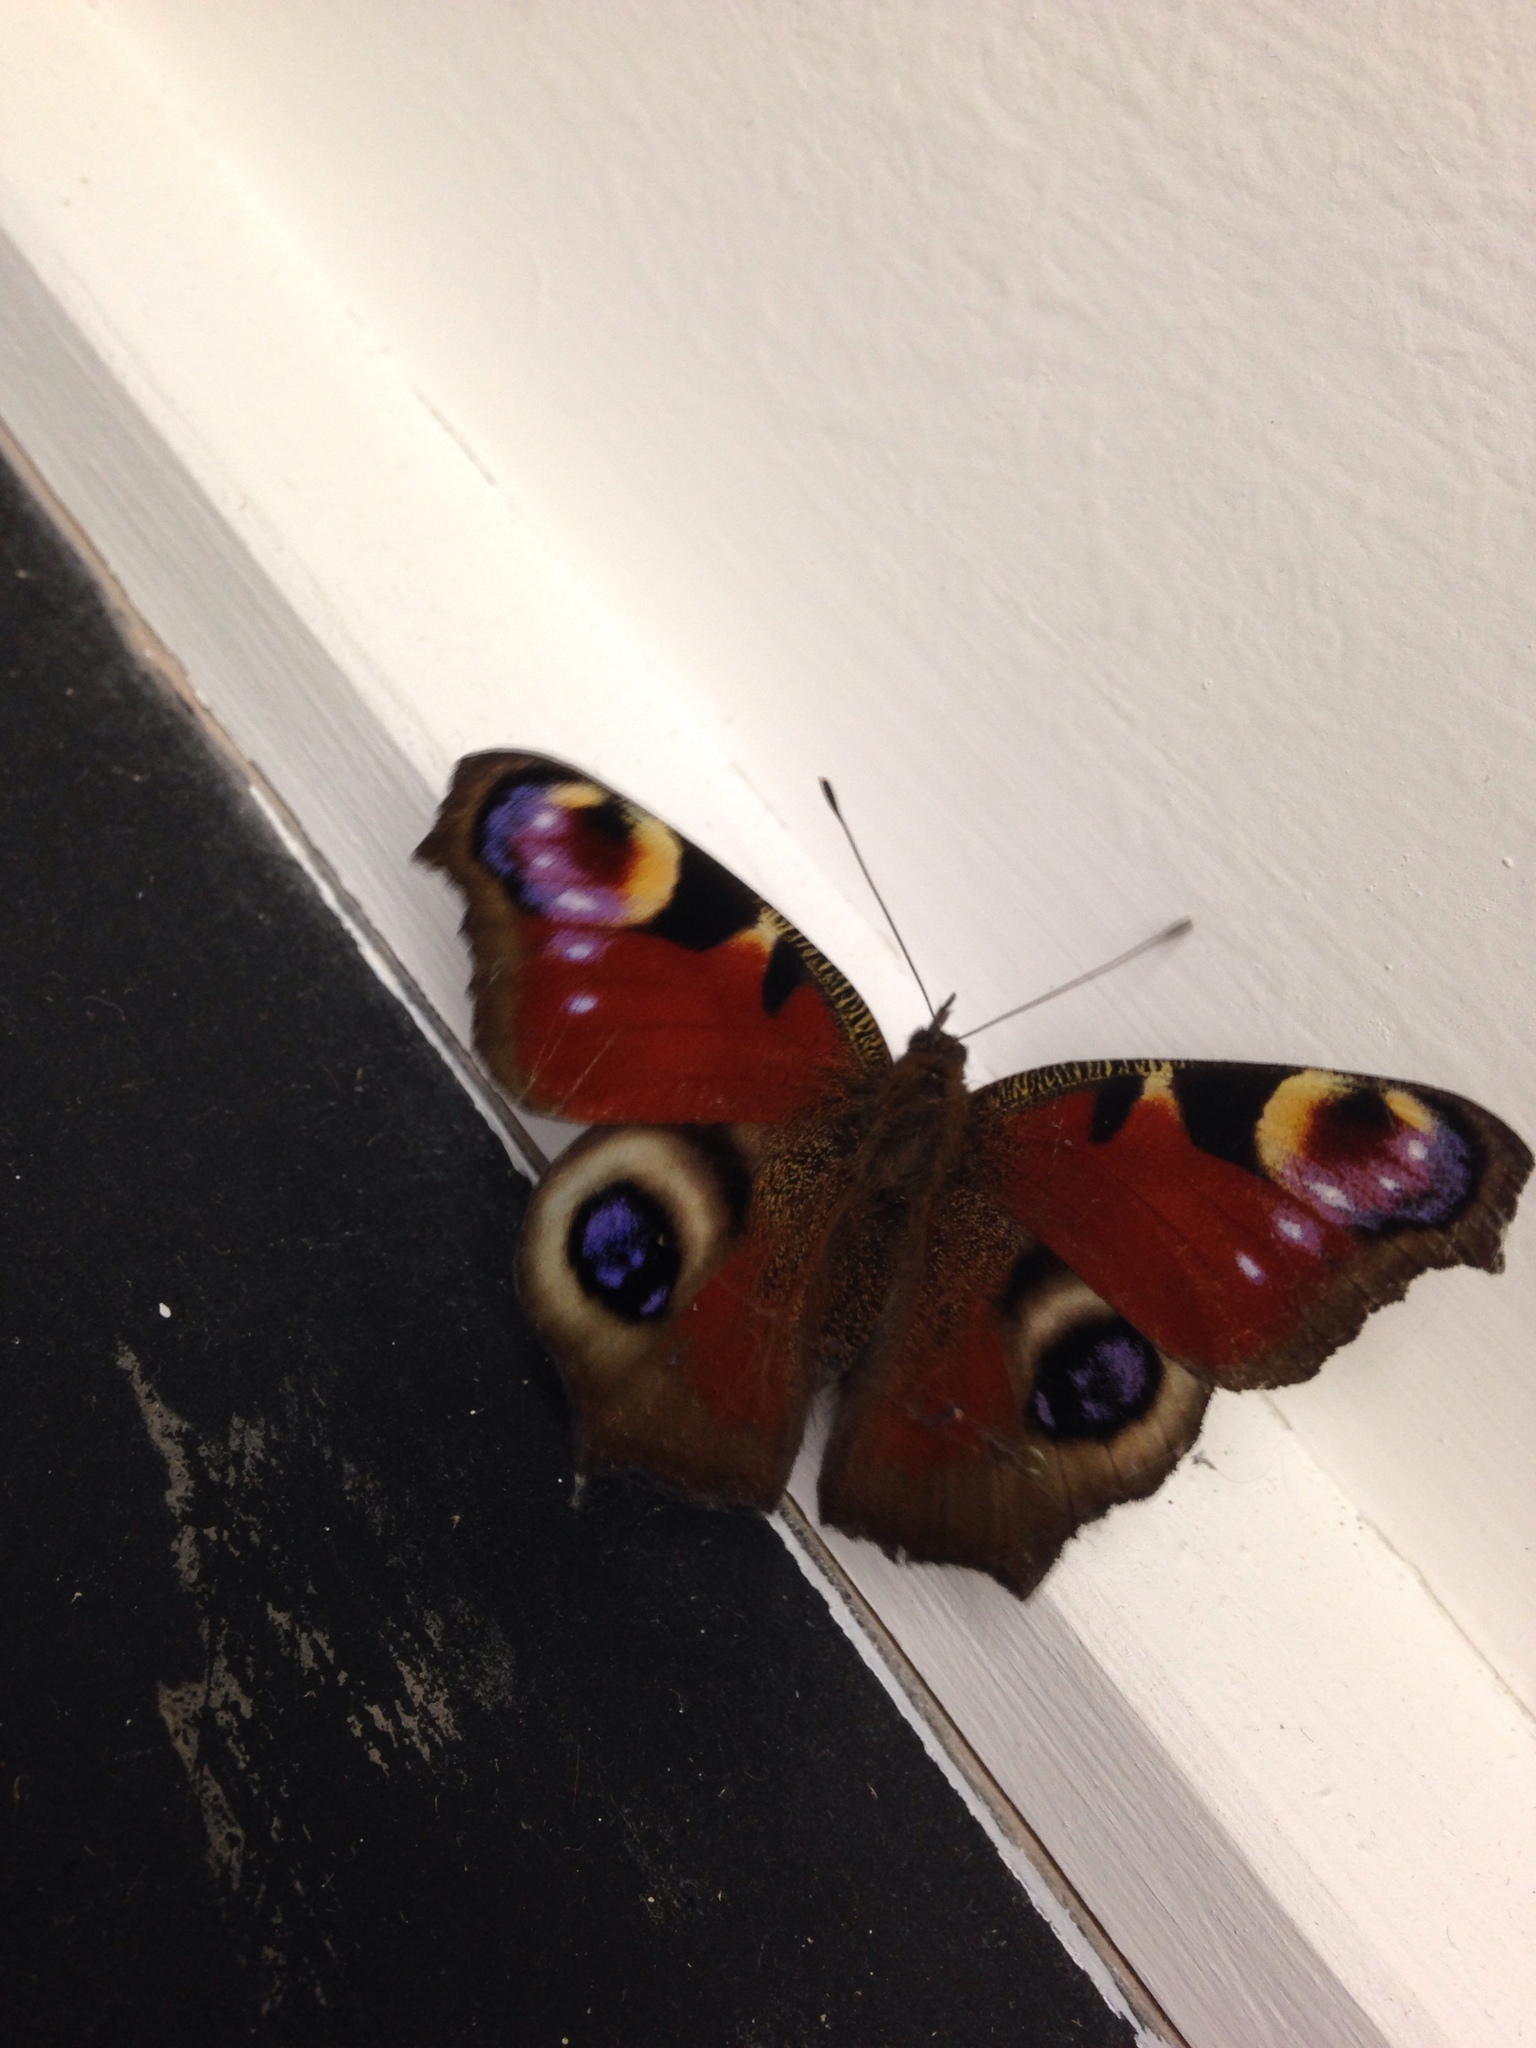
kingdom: Animalia
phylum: Arthropoda
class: Insecta
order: Lepidoptera
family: Nymphalidae
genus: Aglais
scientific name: Aglais io
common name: Peacock
